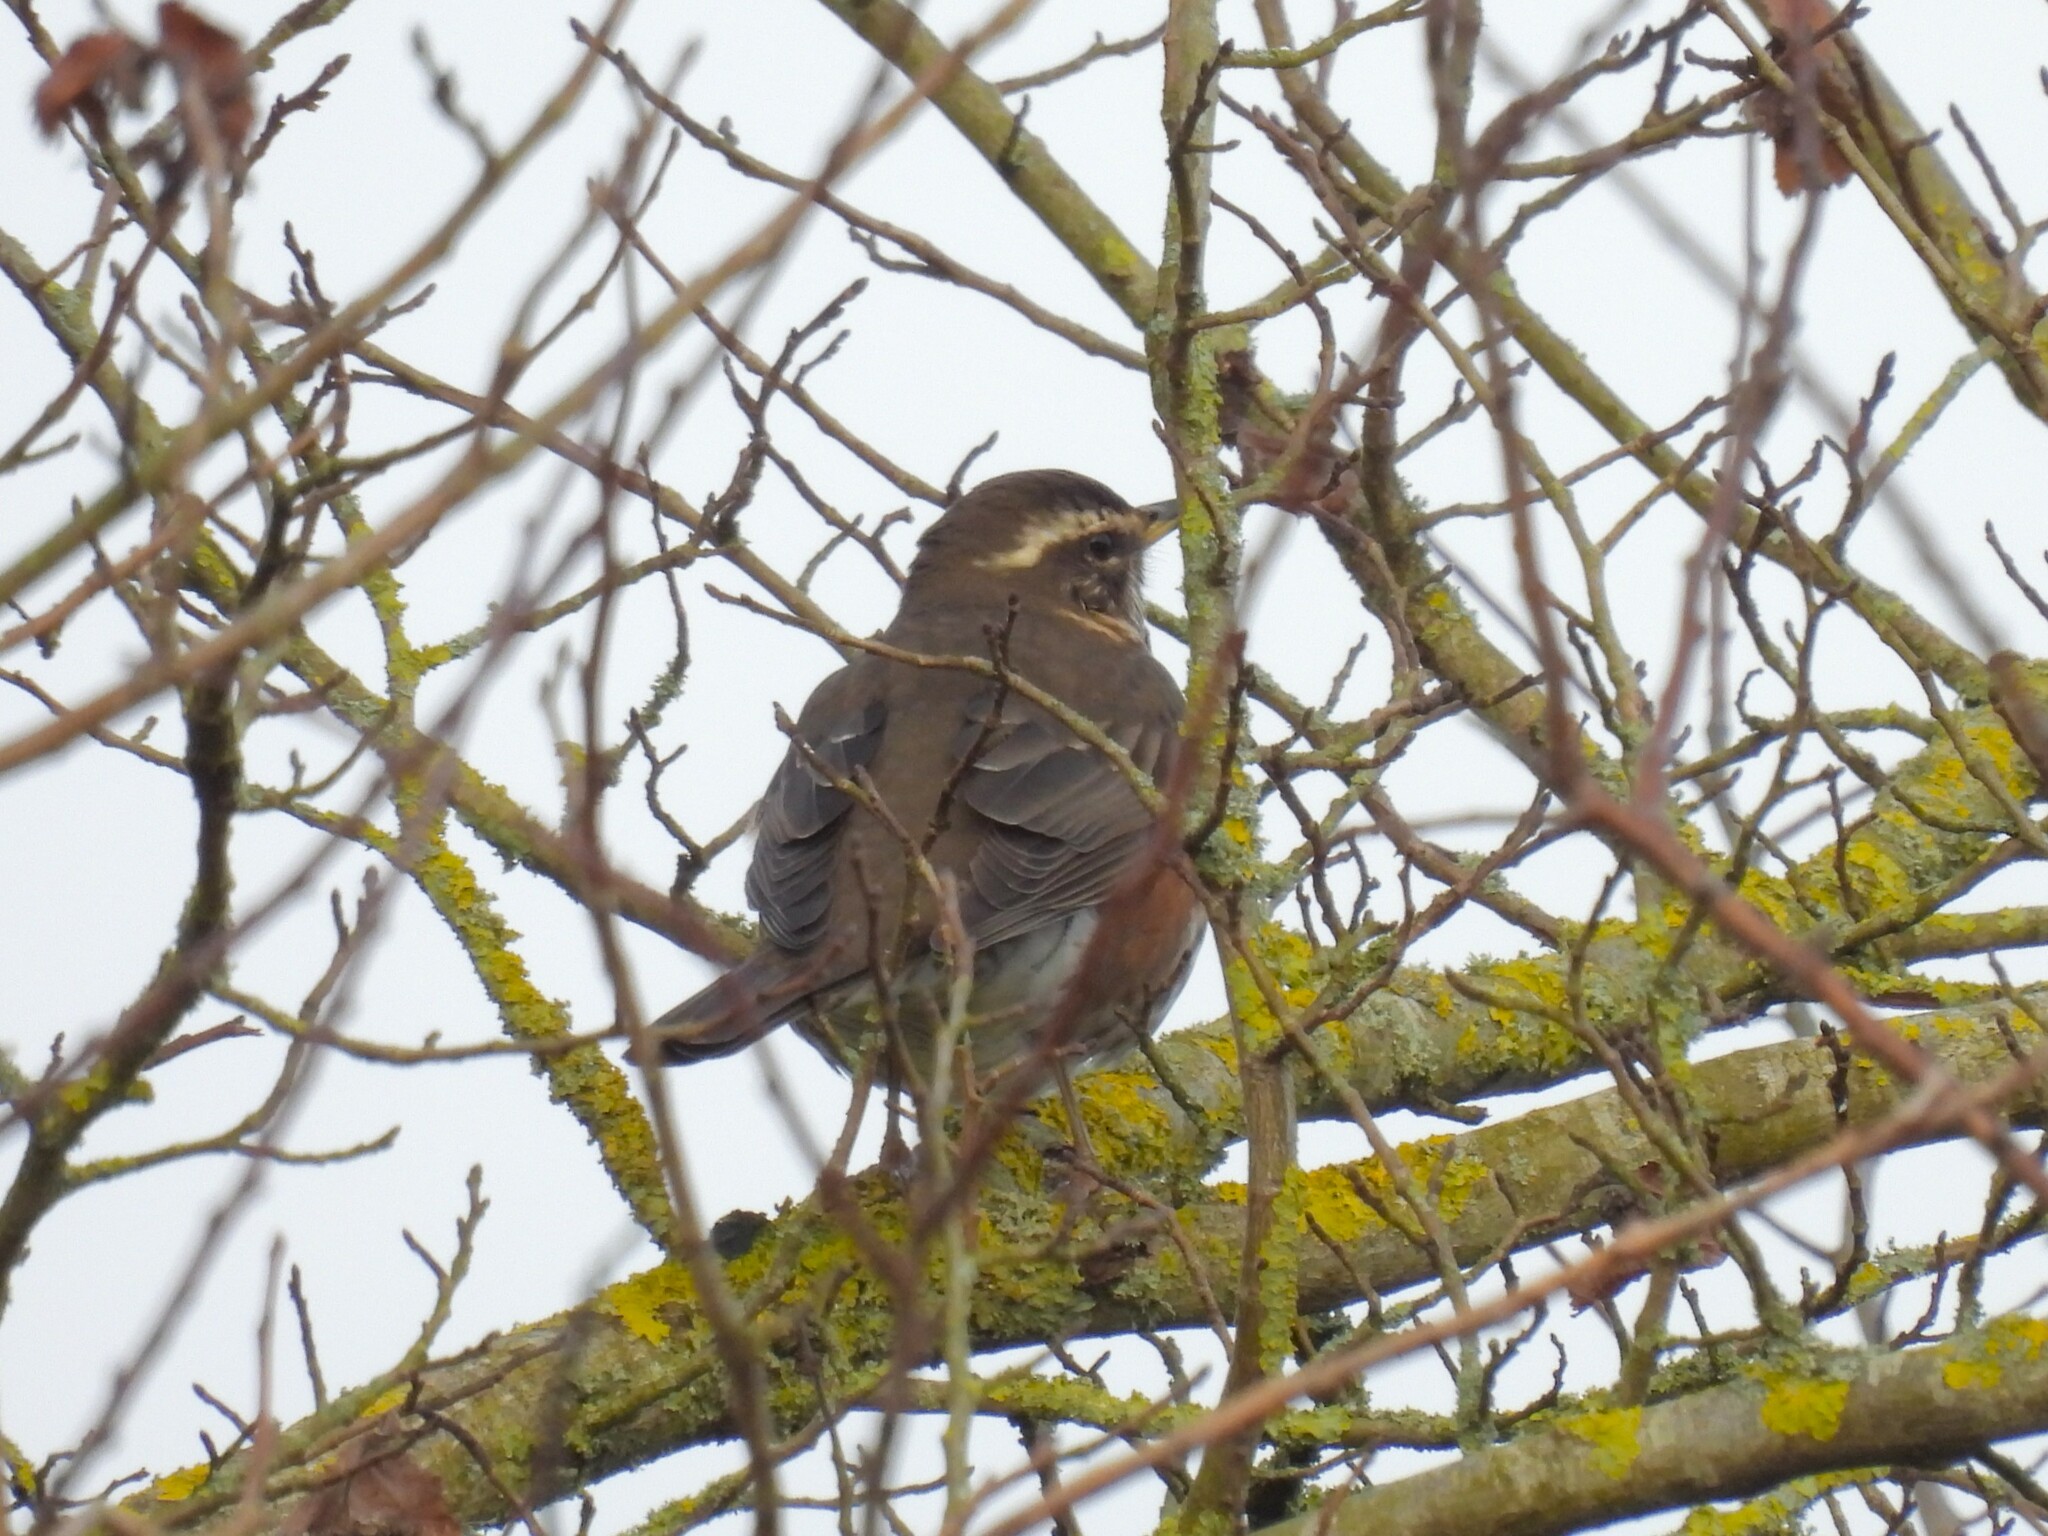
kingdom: Animalia
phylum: Chordata
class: Aves
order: Passeriformes
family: Turdidae
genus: Turdus
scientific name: Turdus iliacus
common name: Redwing
